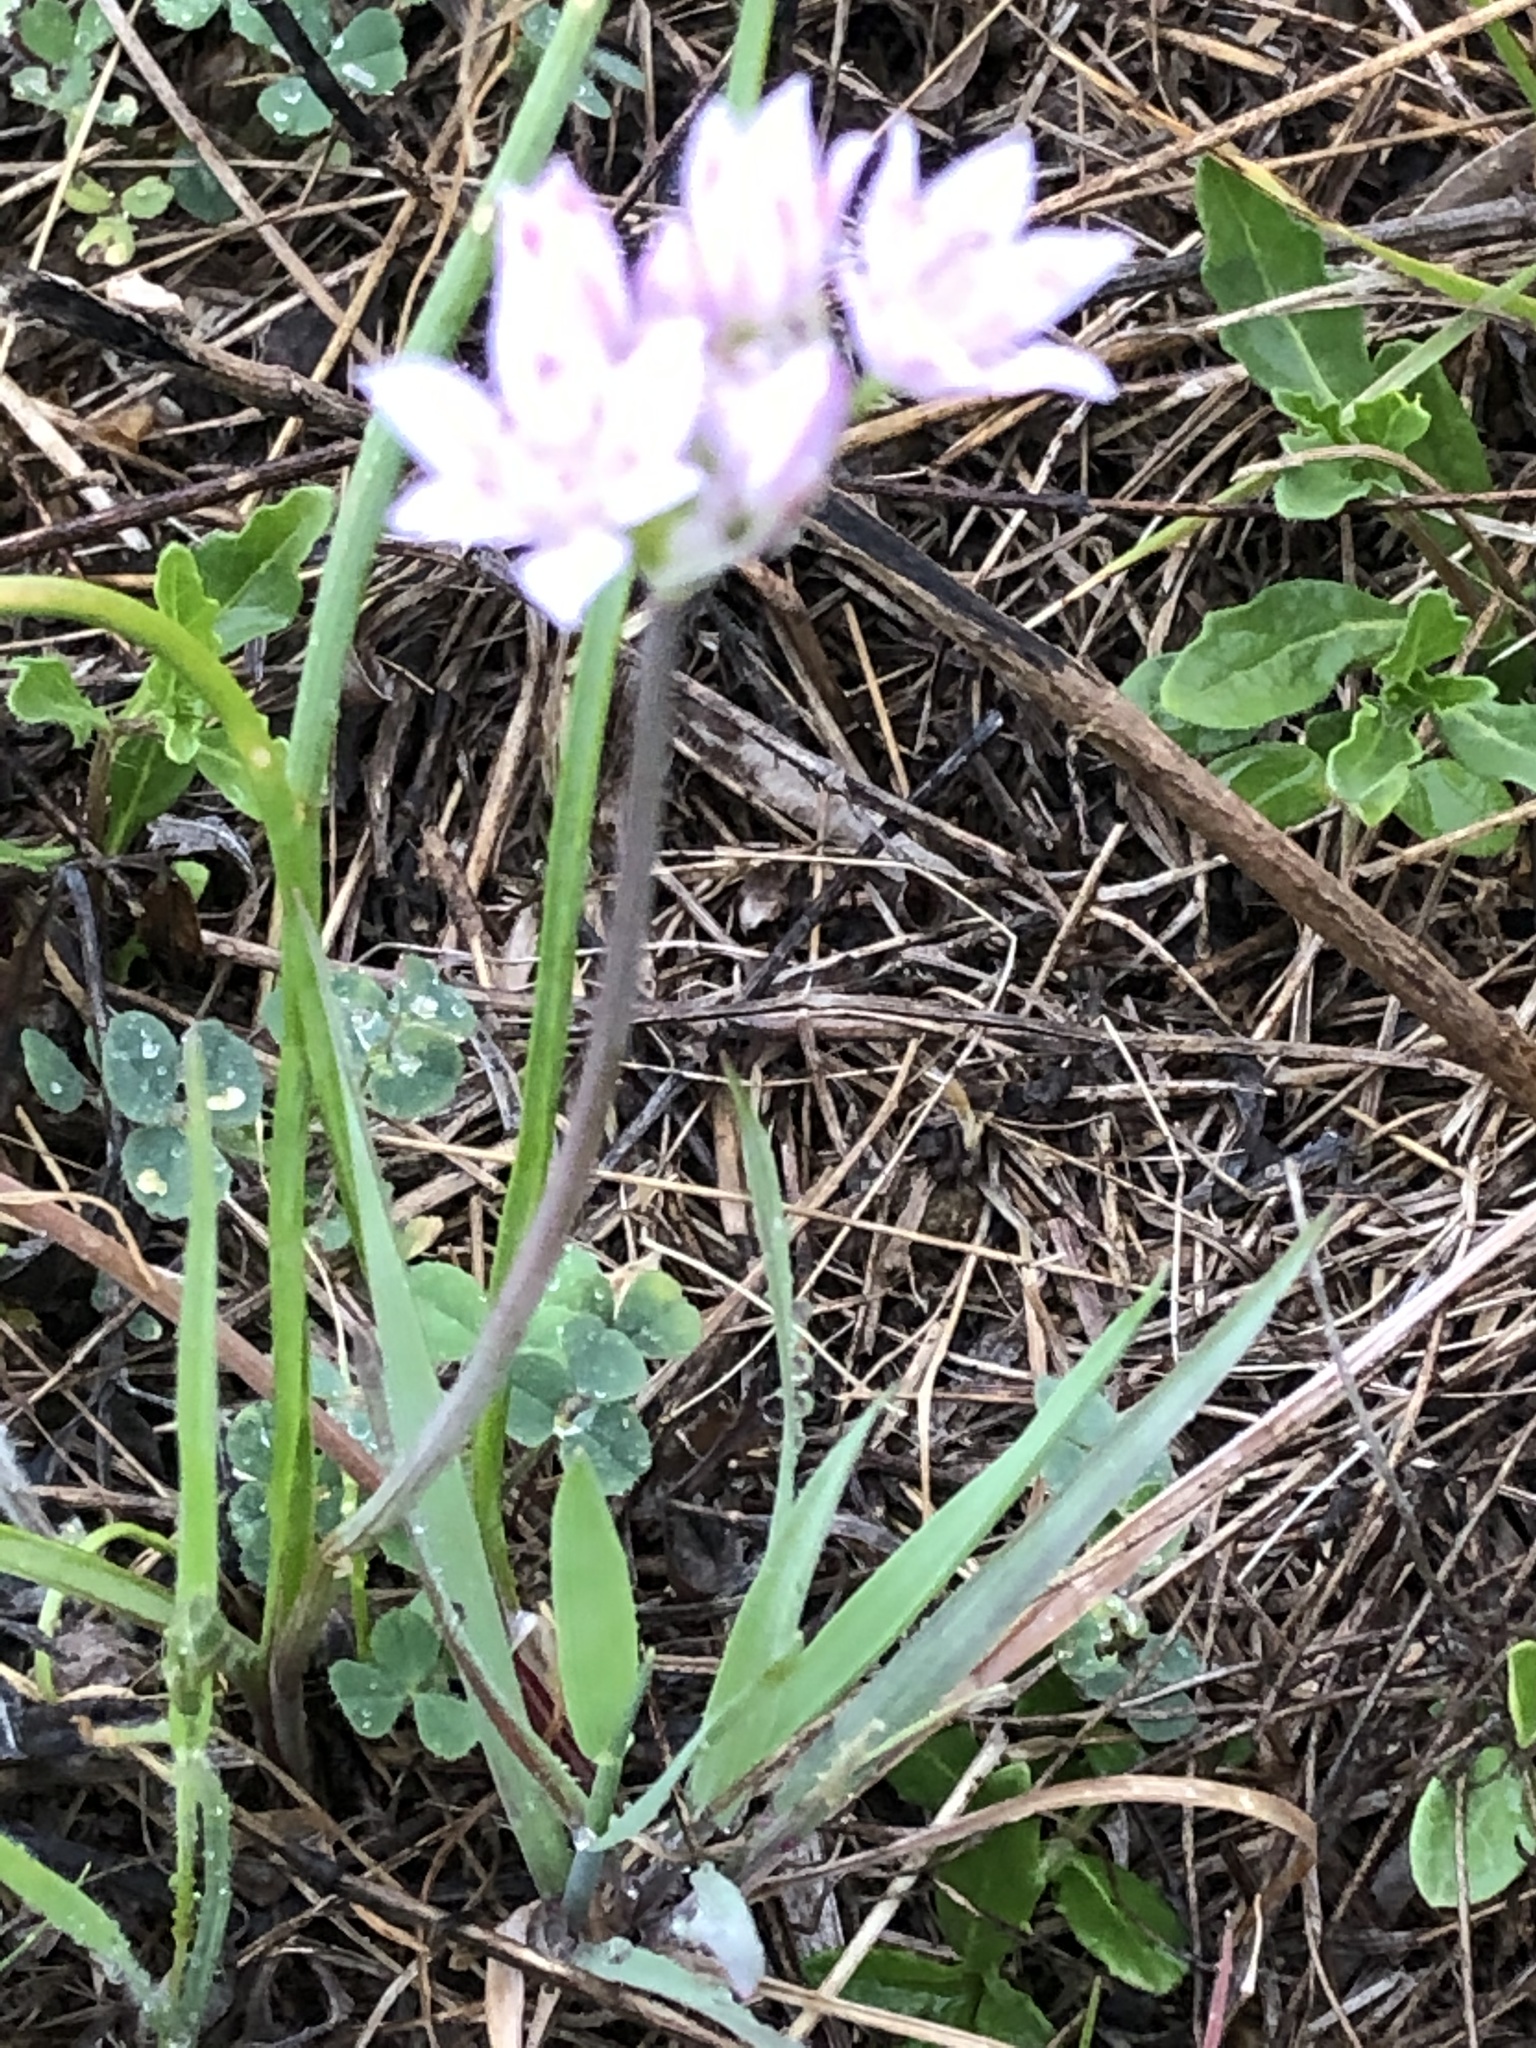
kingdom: Plantae
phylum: Tracheophyta
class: Liliopsida
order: Asparagales
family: Amaryllidaceae
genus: Allium
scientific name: Allium drummondii
